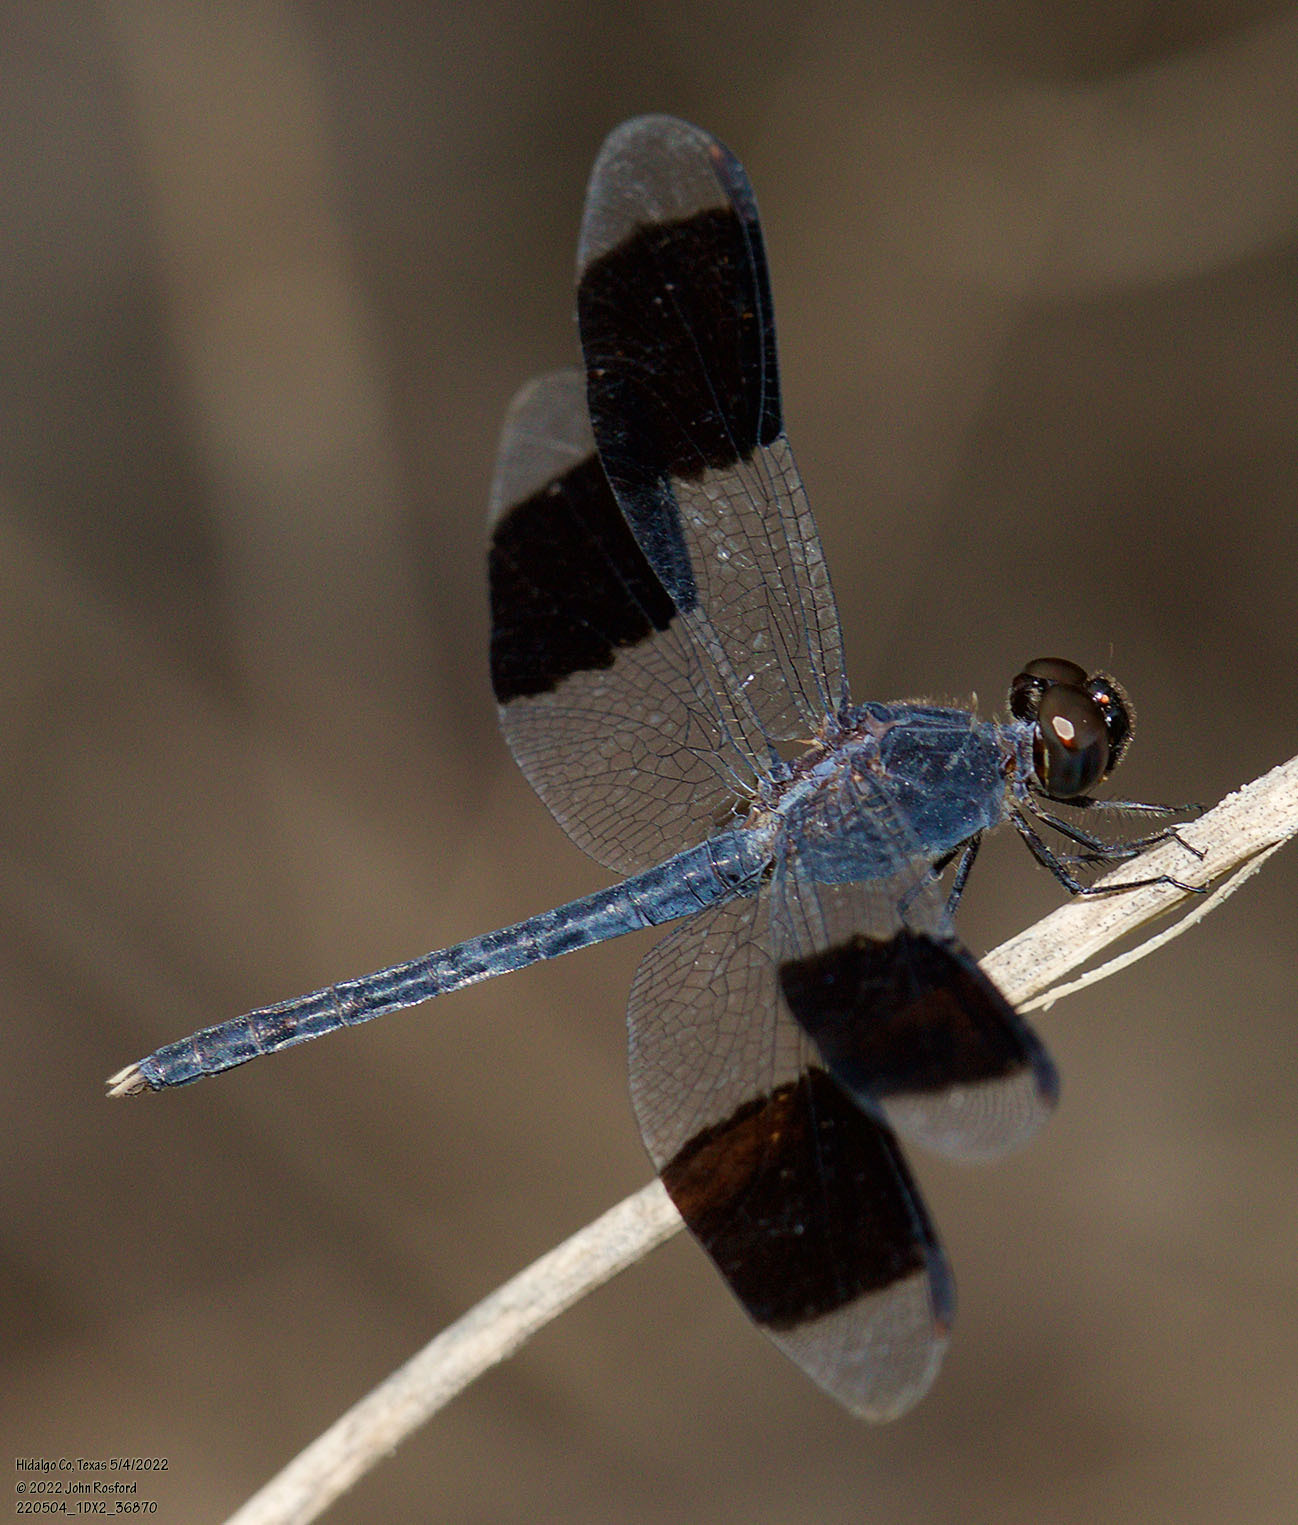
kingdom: Animalia
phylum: Arthropoda
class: Insecta
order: Odonata
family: Libellulidae
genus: Erythrodiplax
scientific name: Erythrodiplax umbrata
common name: Band-winged dragonlet
